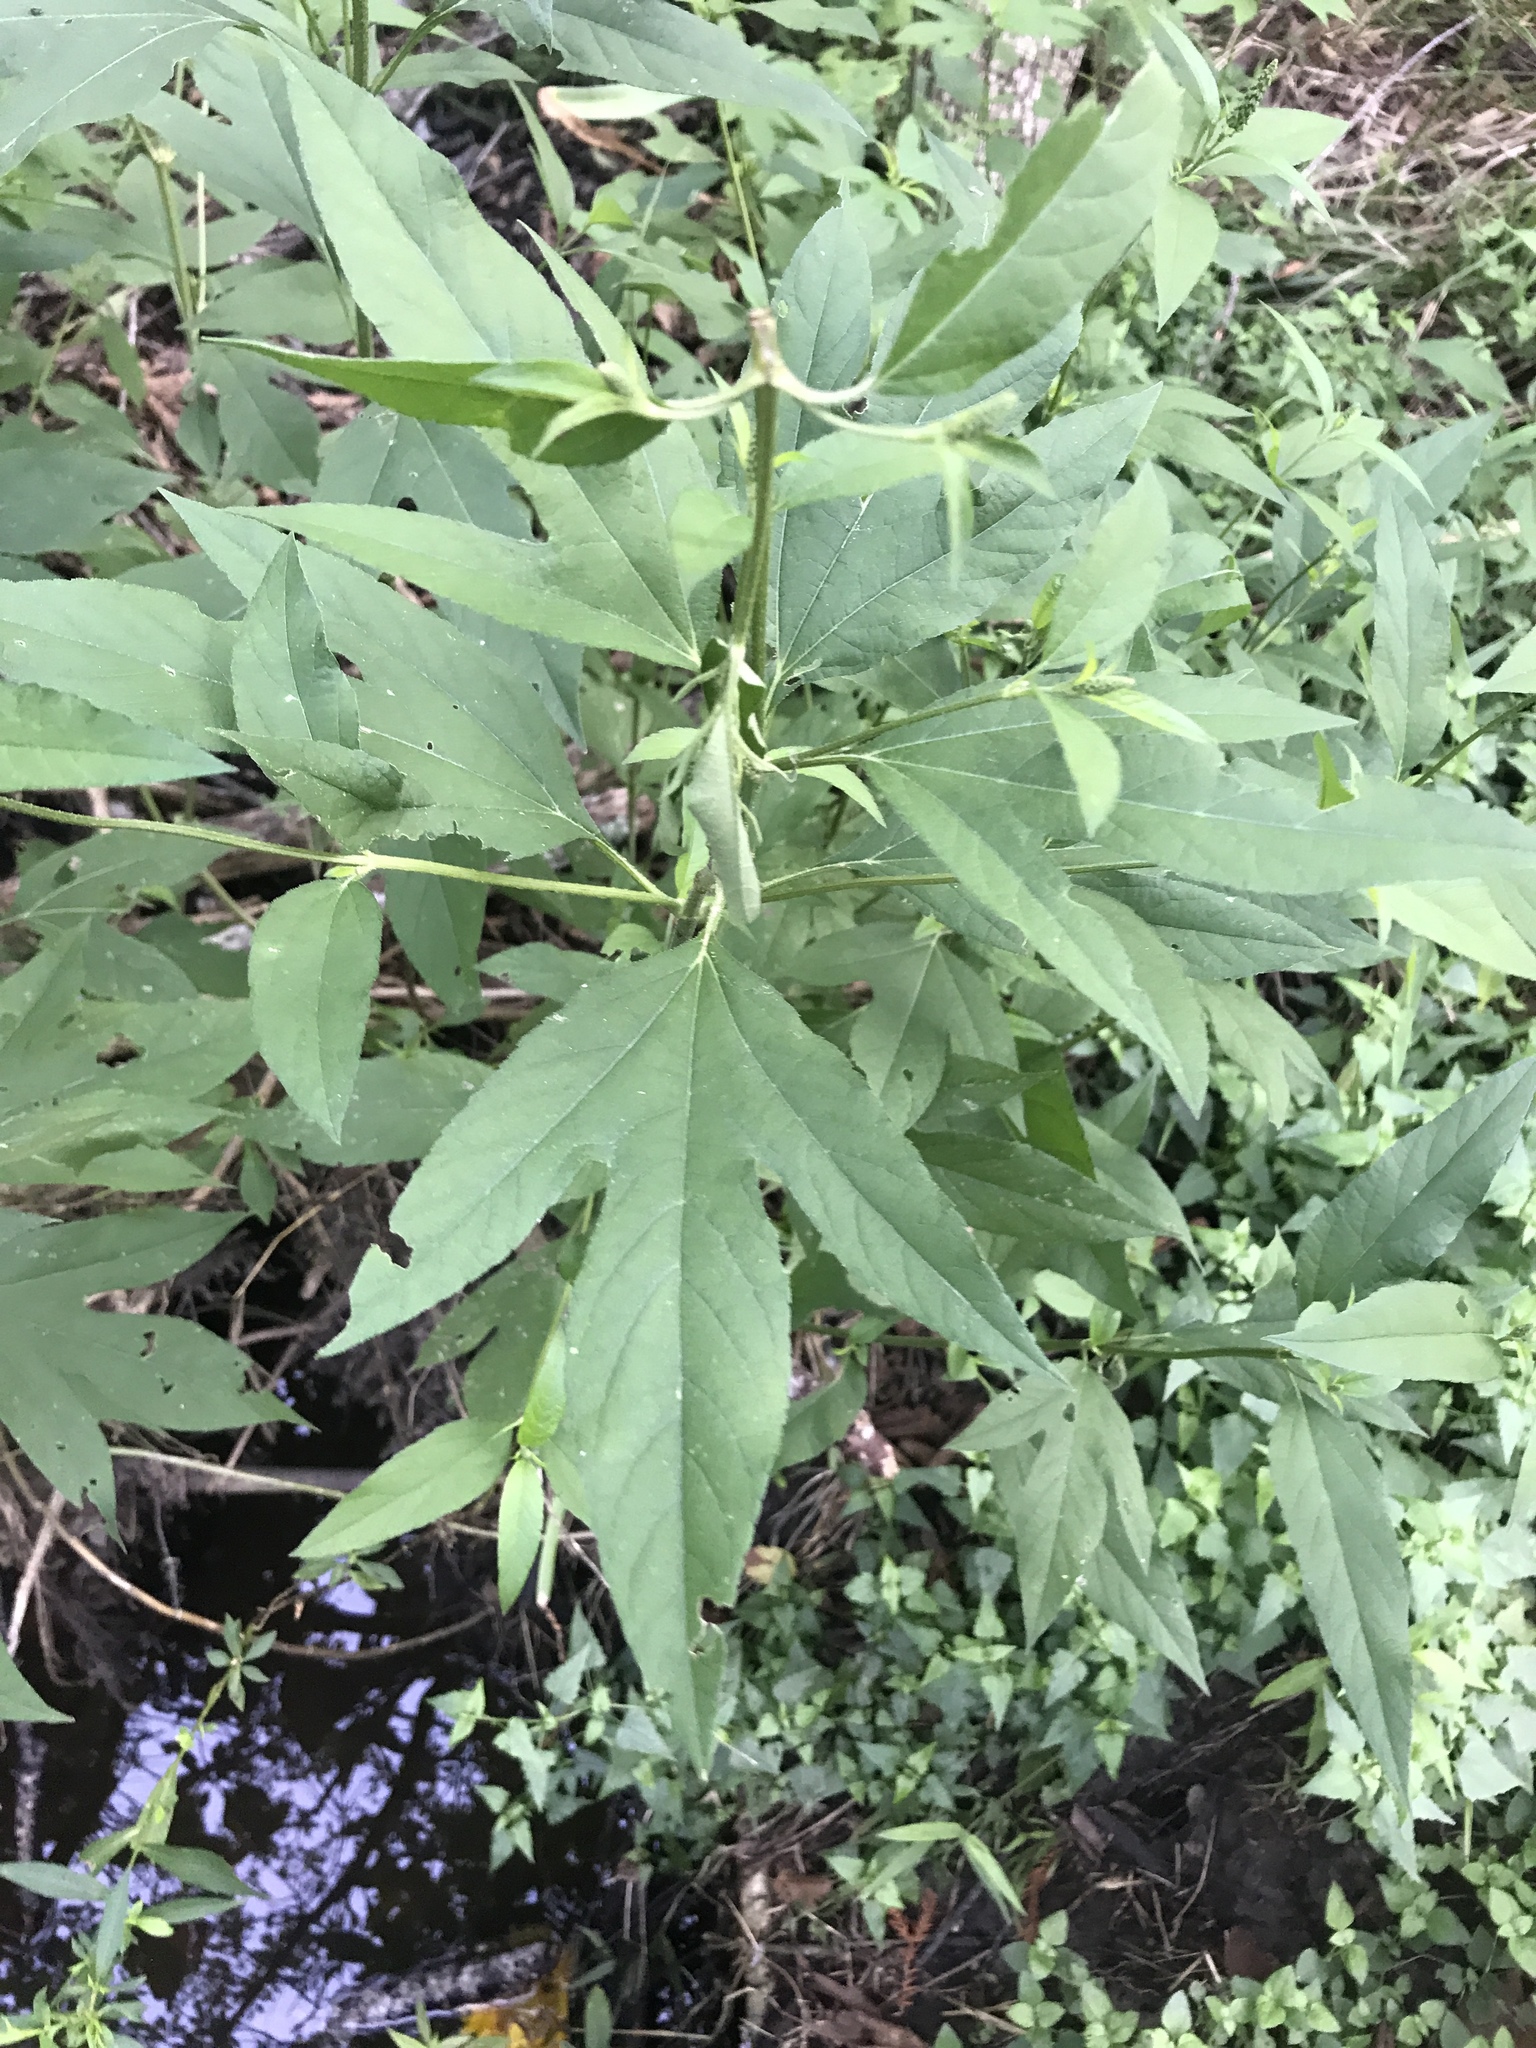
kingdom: Plantae
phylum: Tracheophyta
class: Magnoliopsida
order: Asterales
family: Asteraceae
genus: Ambrosia
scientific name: Ambrosia trifida
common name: Giant ragweed
